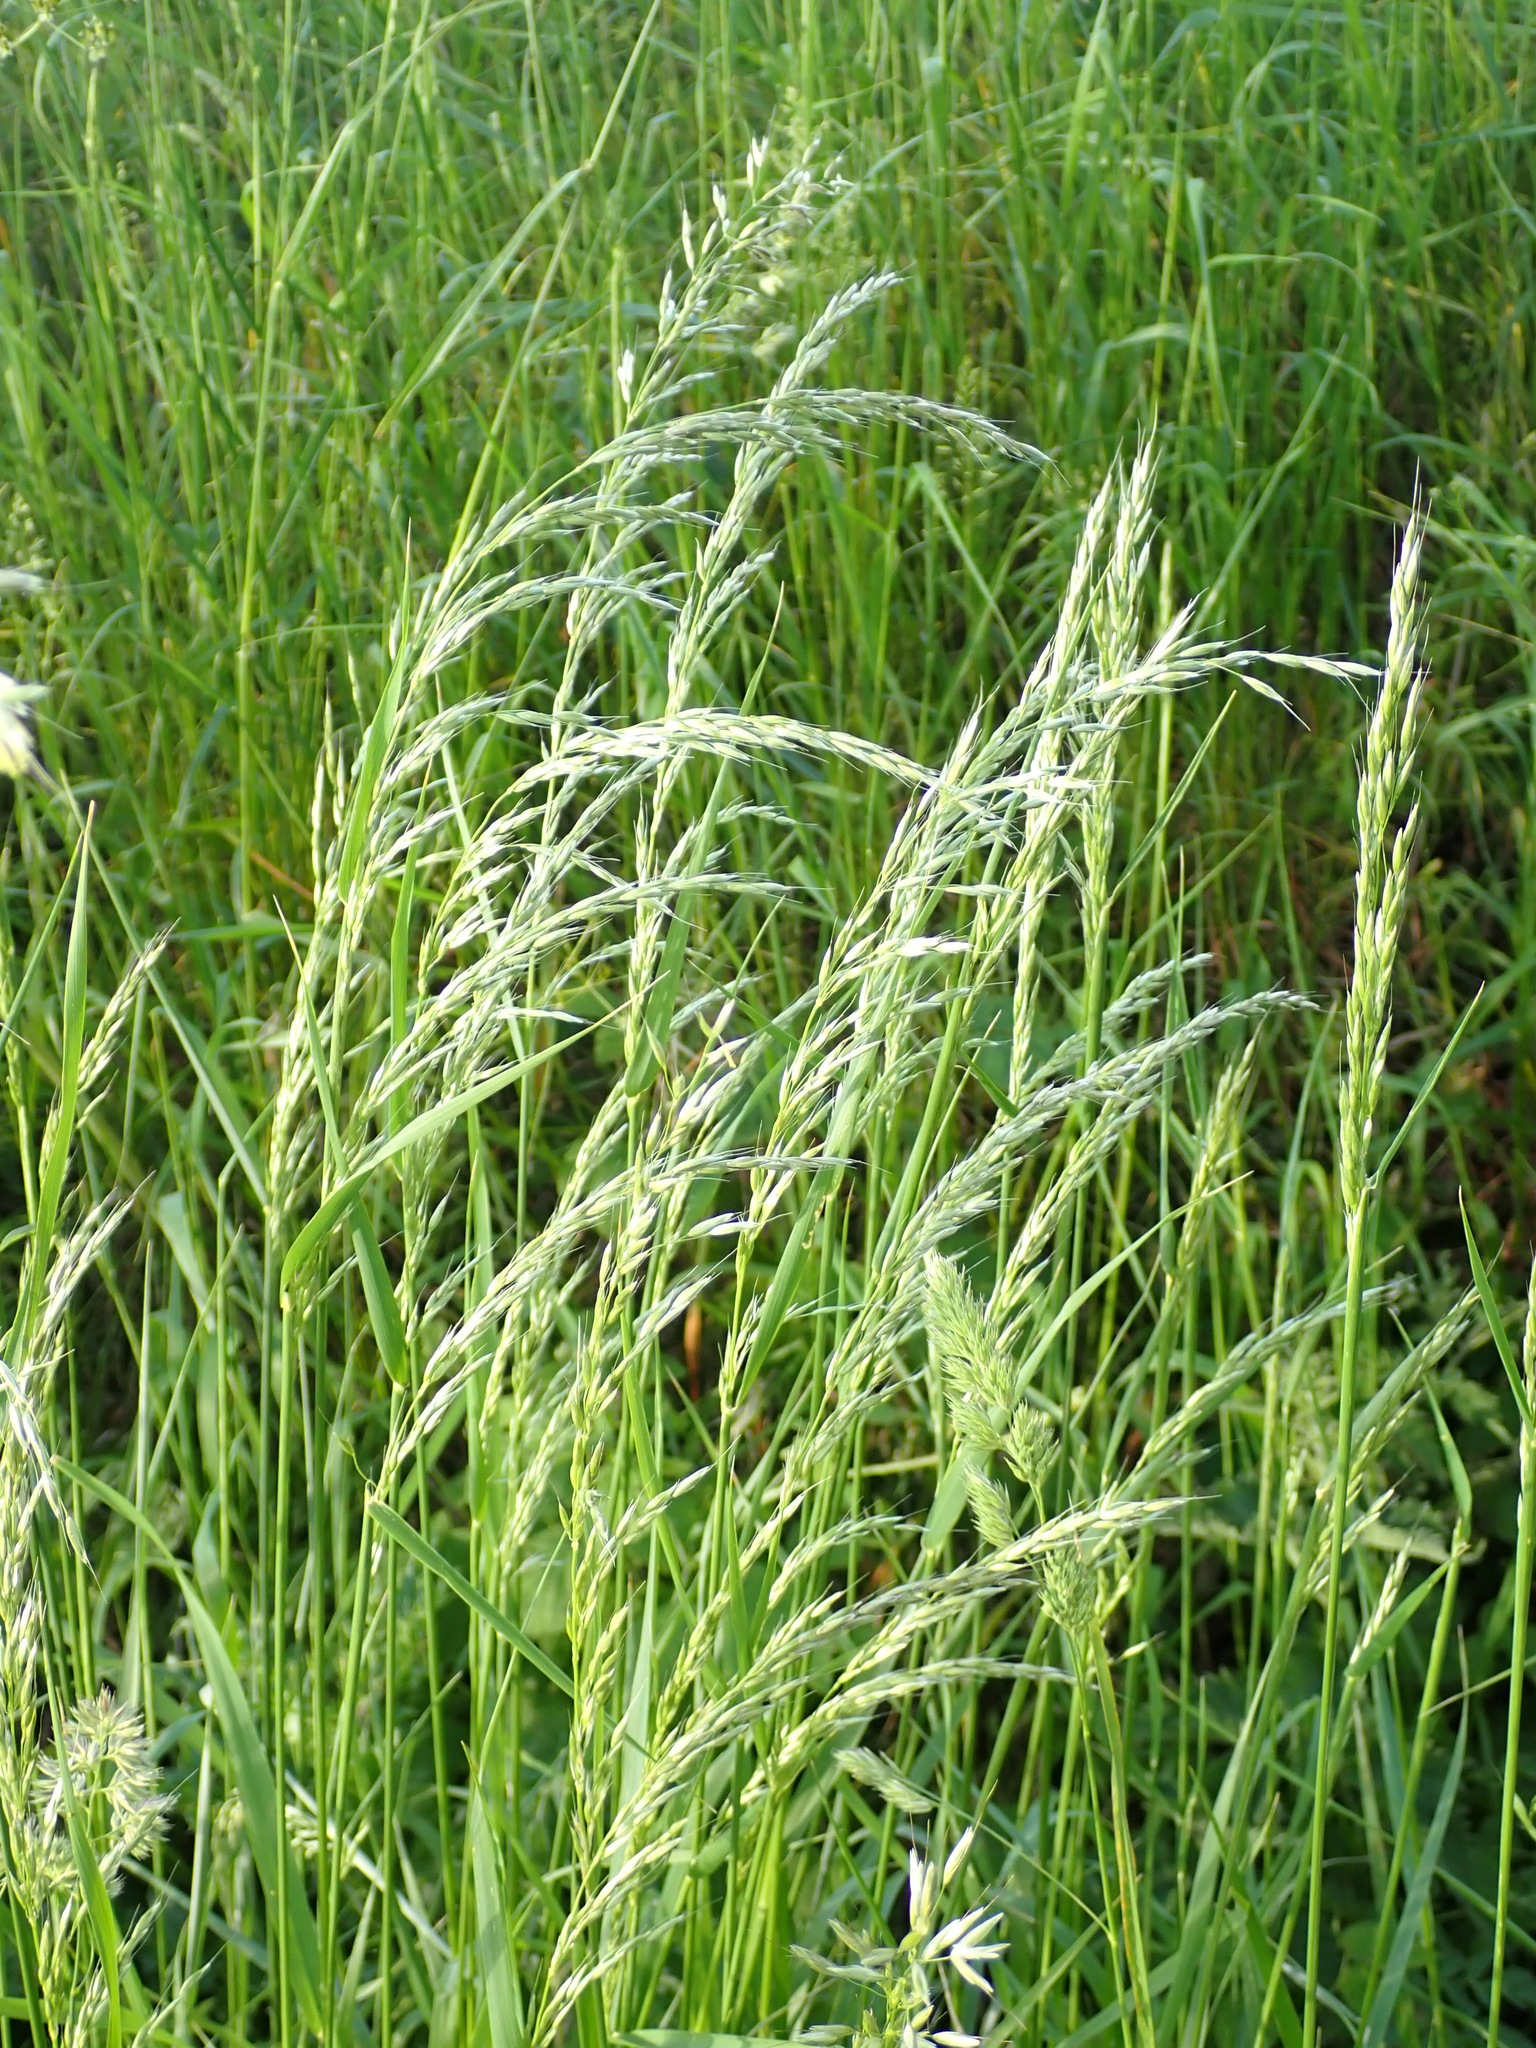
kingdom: Plantae
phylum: Tracheophyta
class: Liliopsida
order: Poales
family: Poaceae
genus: Arrhenatherum
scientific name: Arrhenatherum elatius
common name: Tall oatgrass
